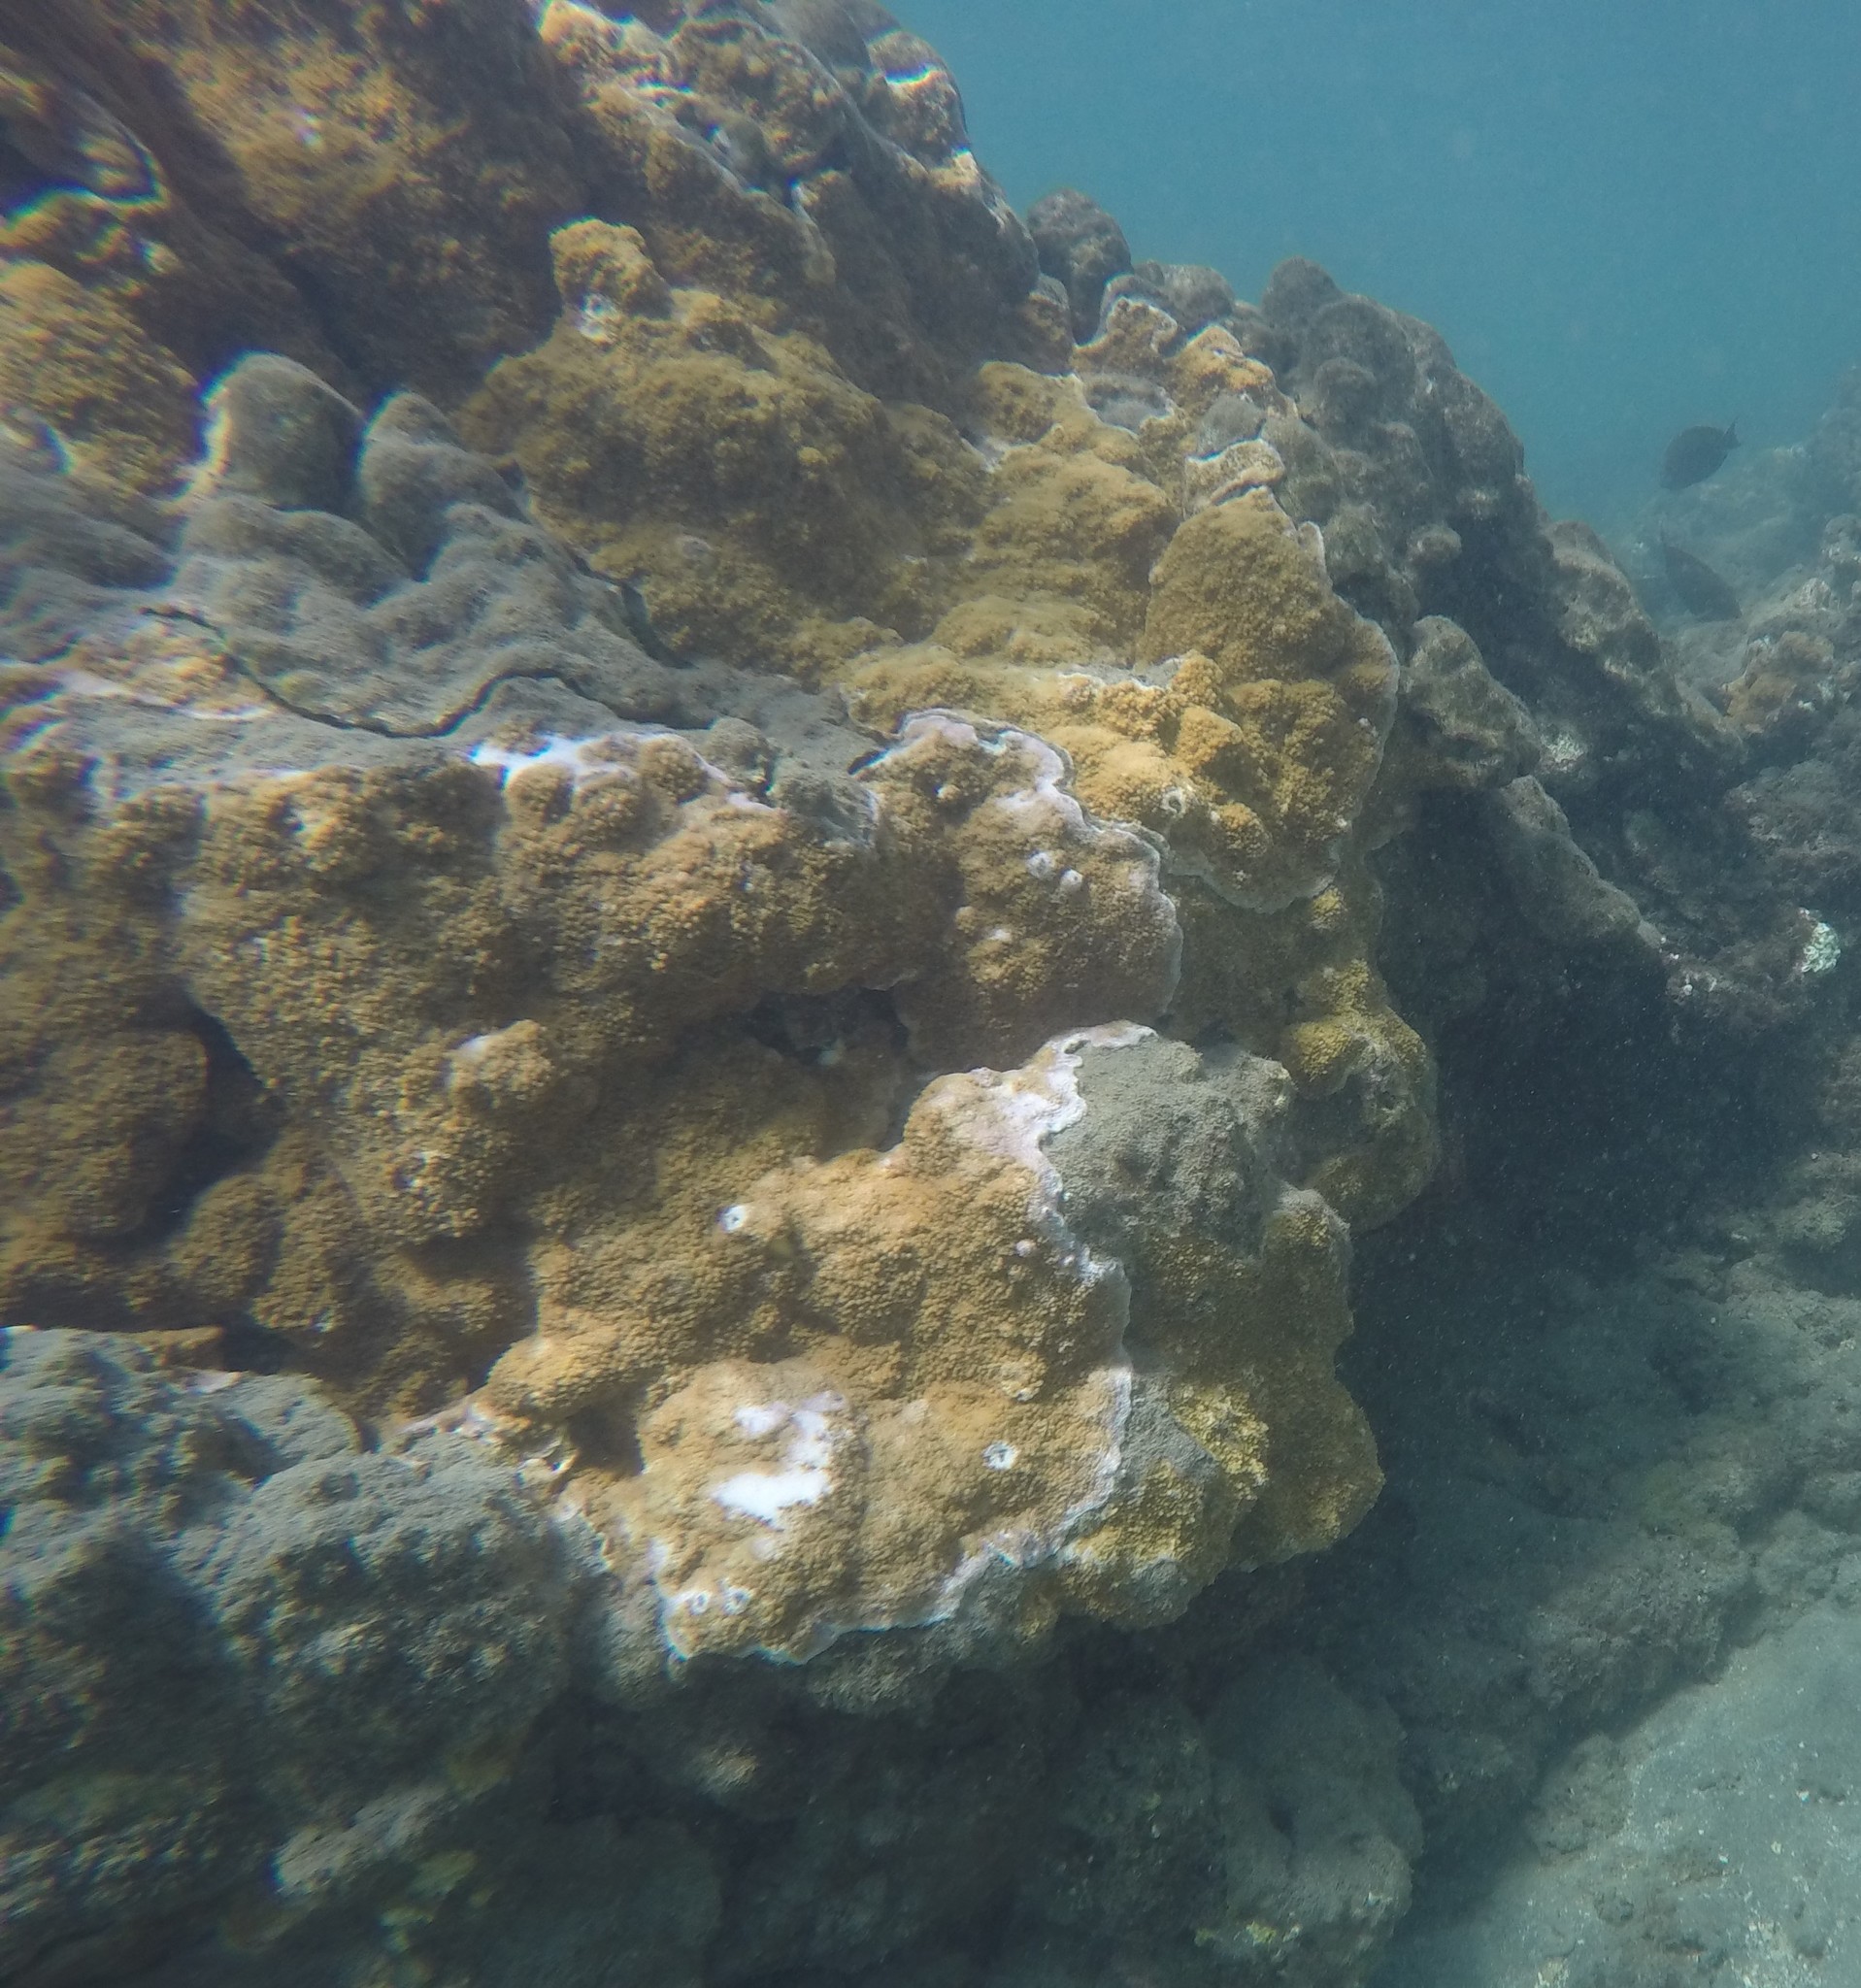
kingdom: Animalia
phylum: Cnidaria
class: Anthozoa
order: Scleractinia
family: Acroporidae
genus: Montipora
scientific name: Montipora patula
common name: Pore coral
